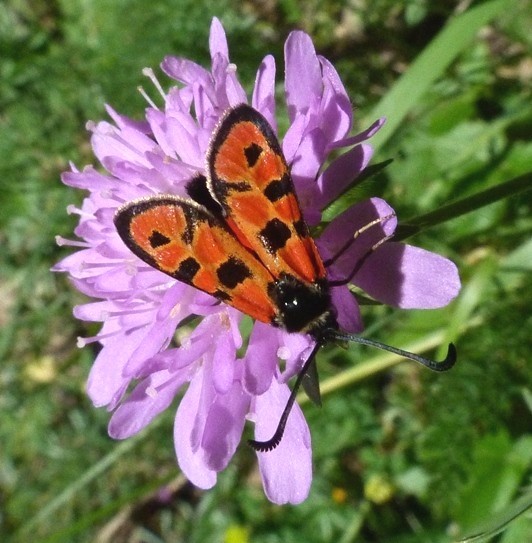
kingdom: Animalia
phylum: Arthropoda
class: Insecta
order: Lepidoptera
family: Zygaenidae
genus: Zygaena
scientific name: Zygaena hilaris
